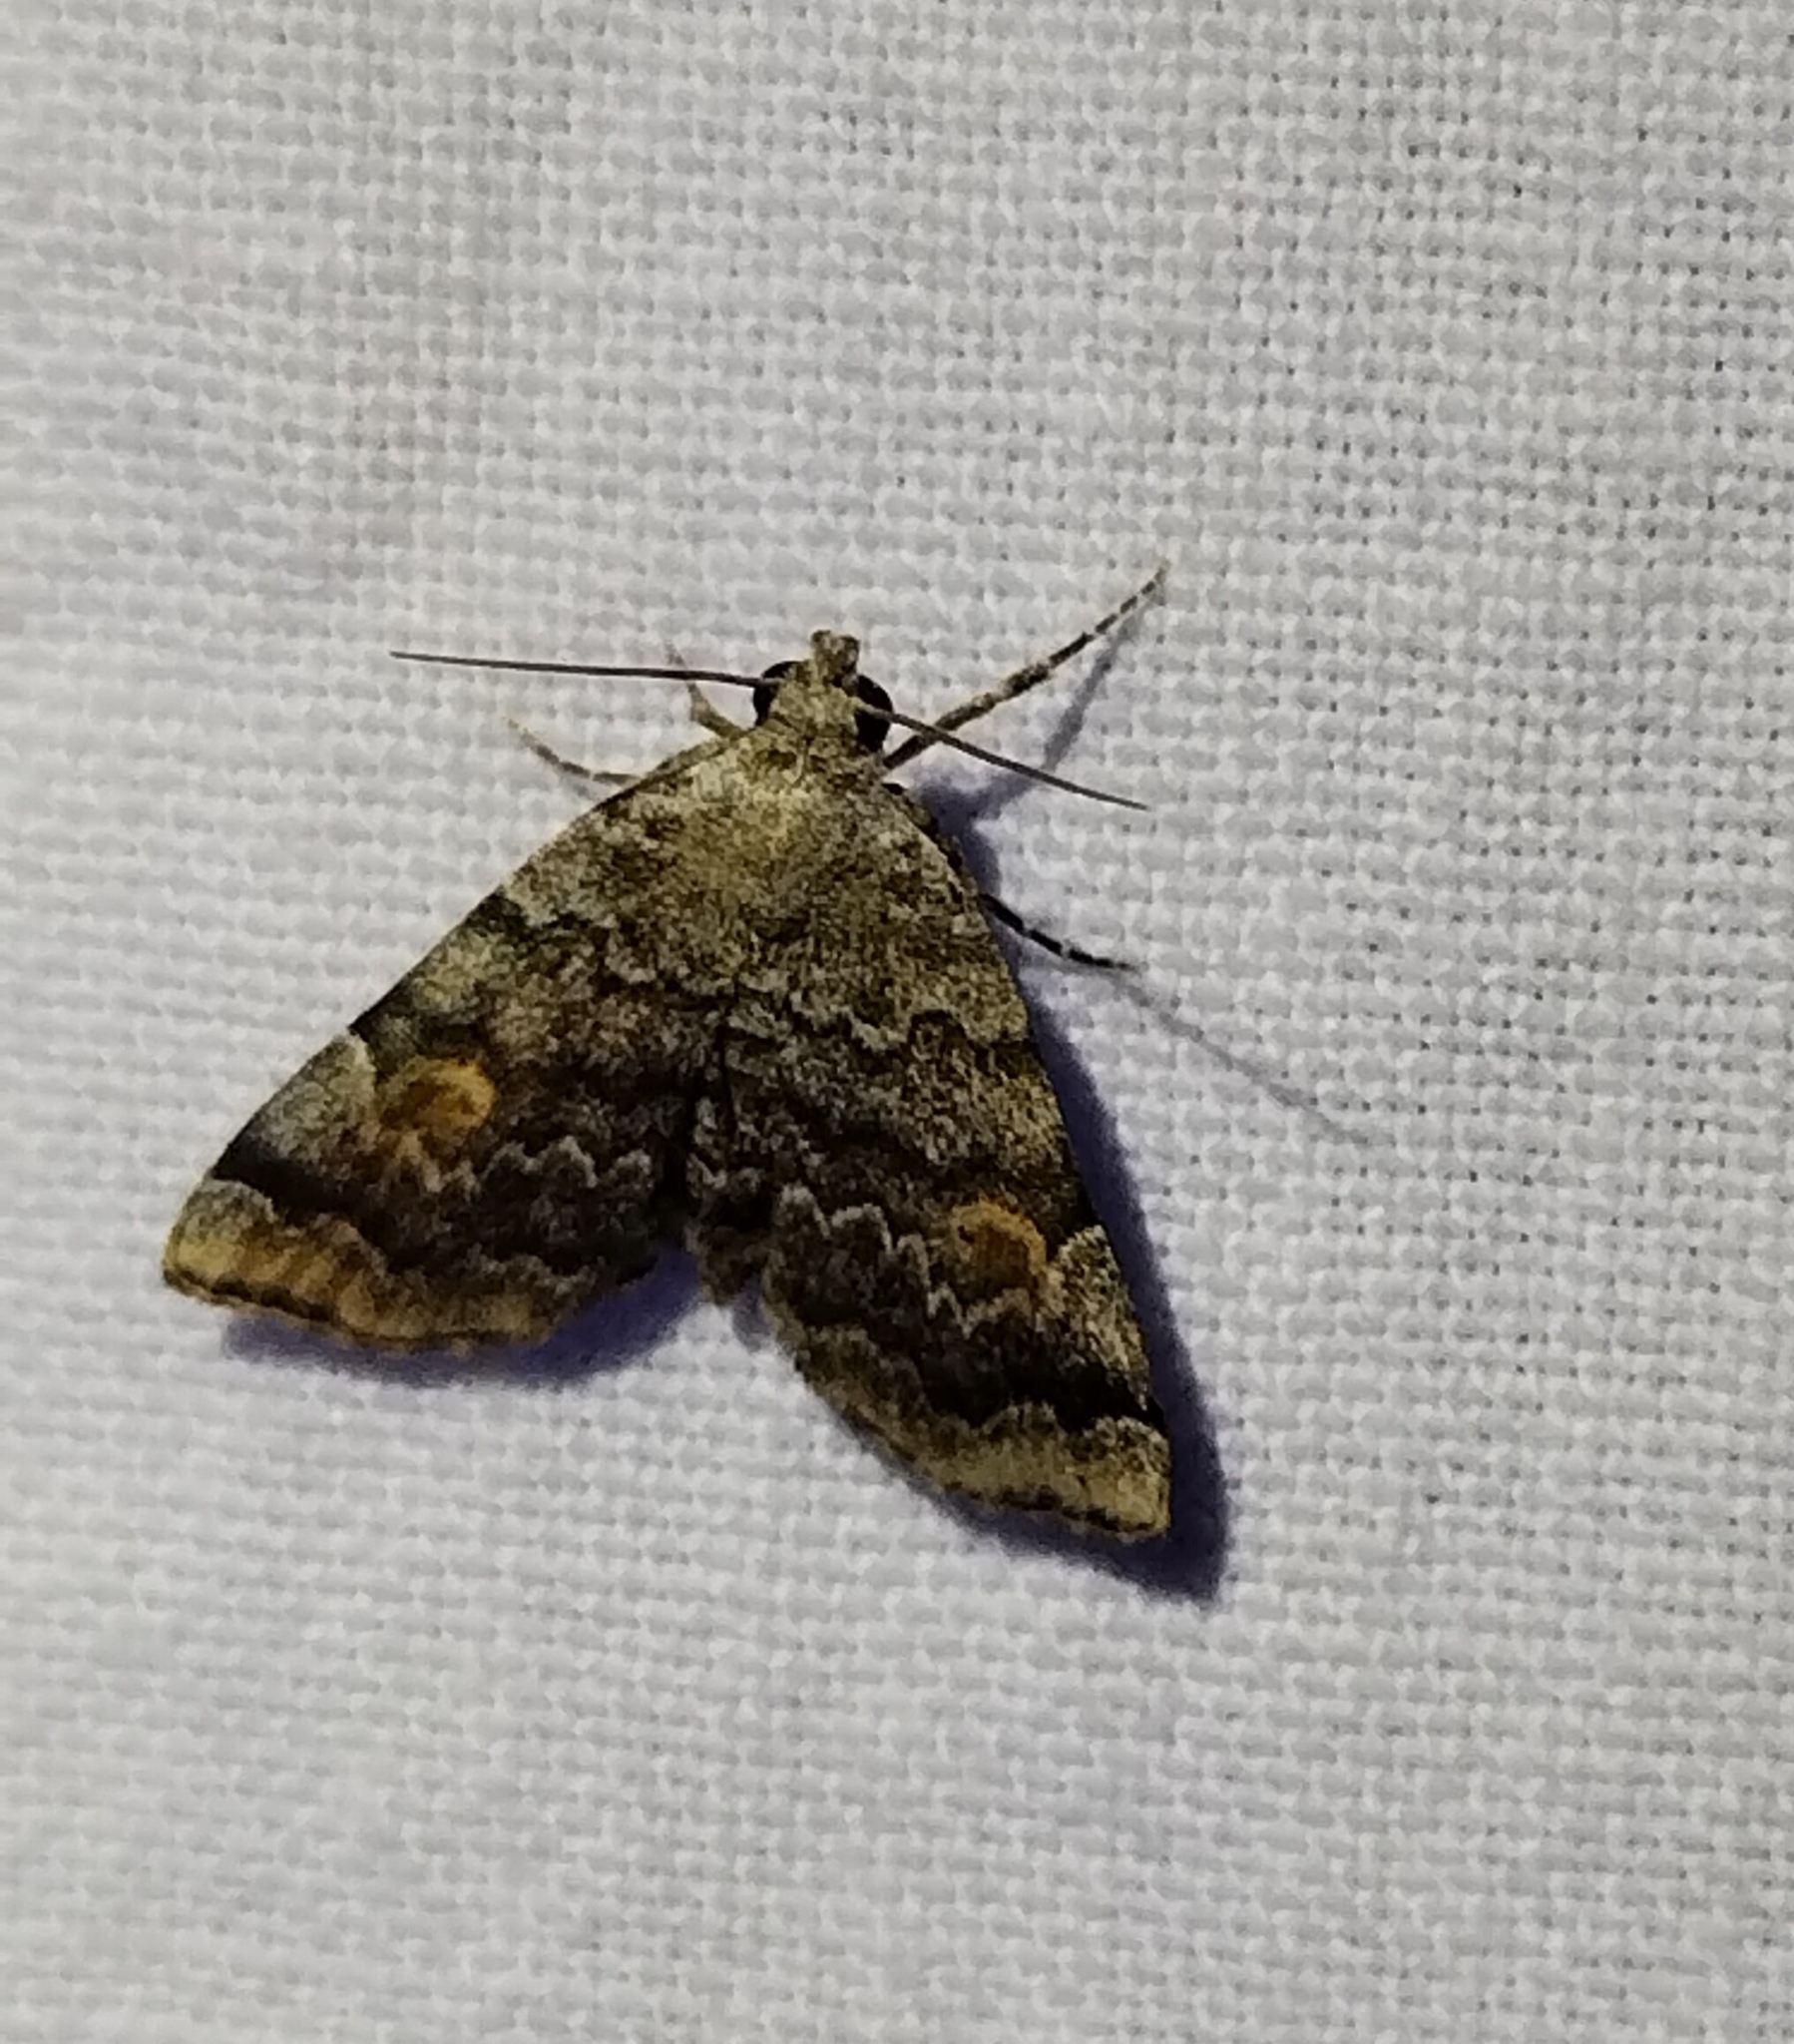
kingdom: Animalia
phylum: Arthropoda
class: Insecta
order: Lepidoptera
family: Erebidae
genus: Idia
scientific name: Idia americalis
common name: American idia moth
